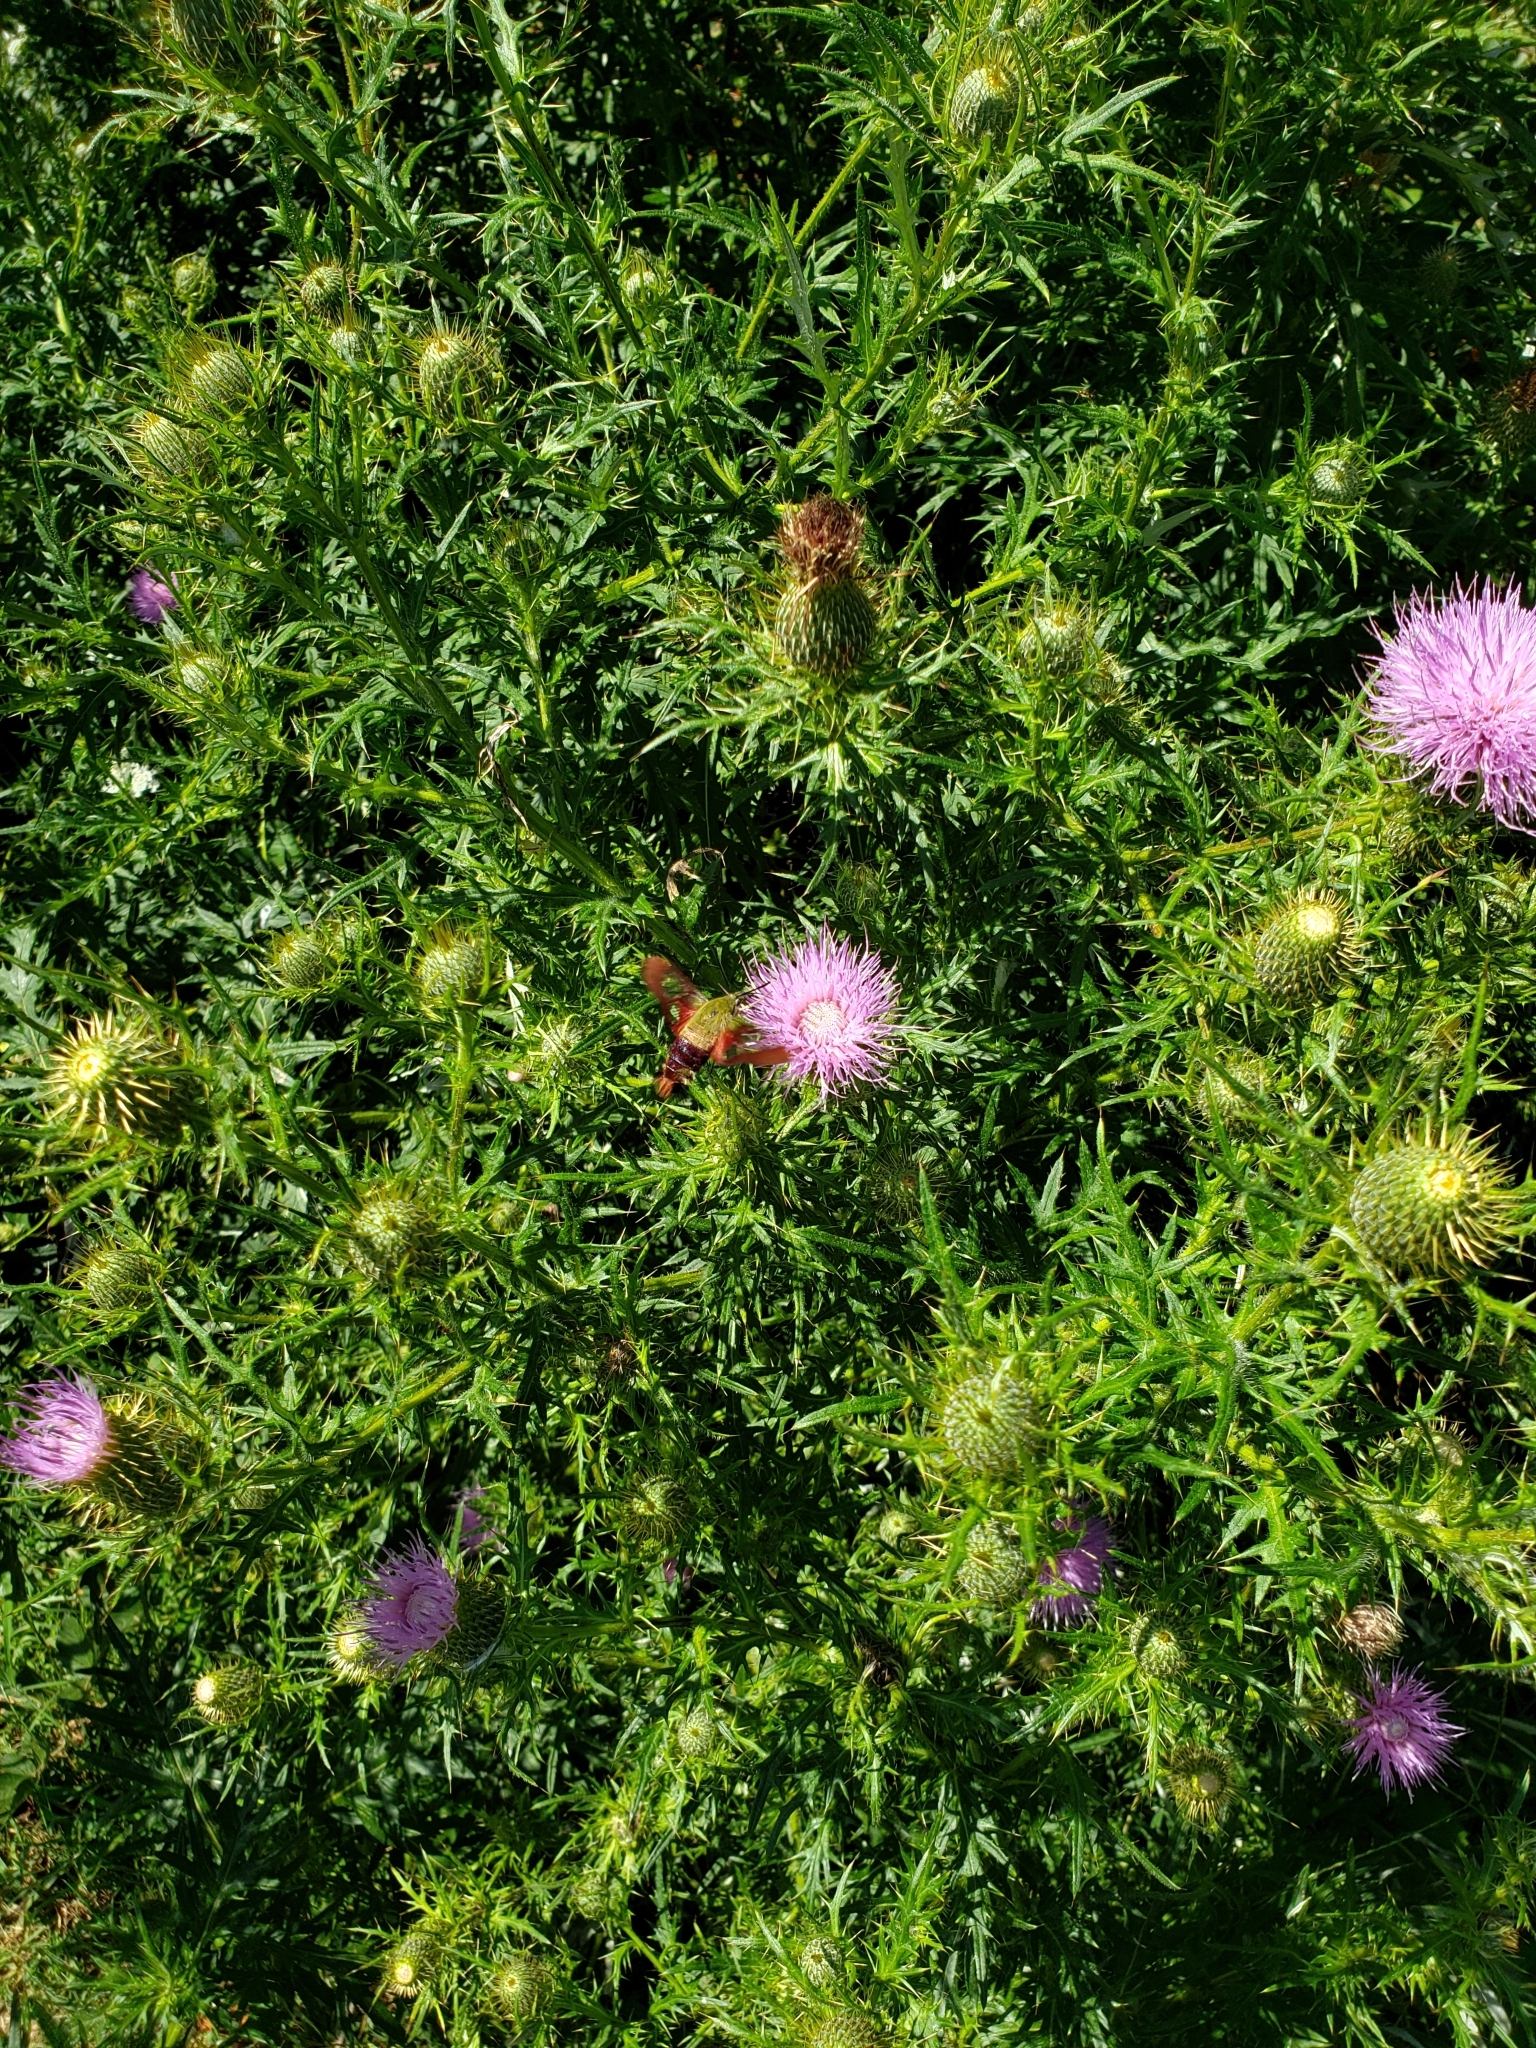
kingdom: Animalia
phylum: Arthropoda
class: Insecta
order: Lepidoptera
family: Sphingidae
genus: Hemaris
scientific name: Hemaris thysbe
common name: Common clear-wing
